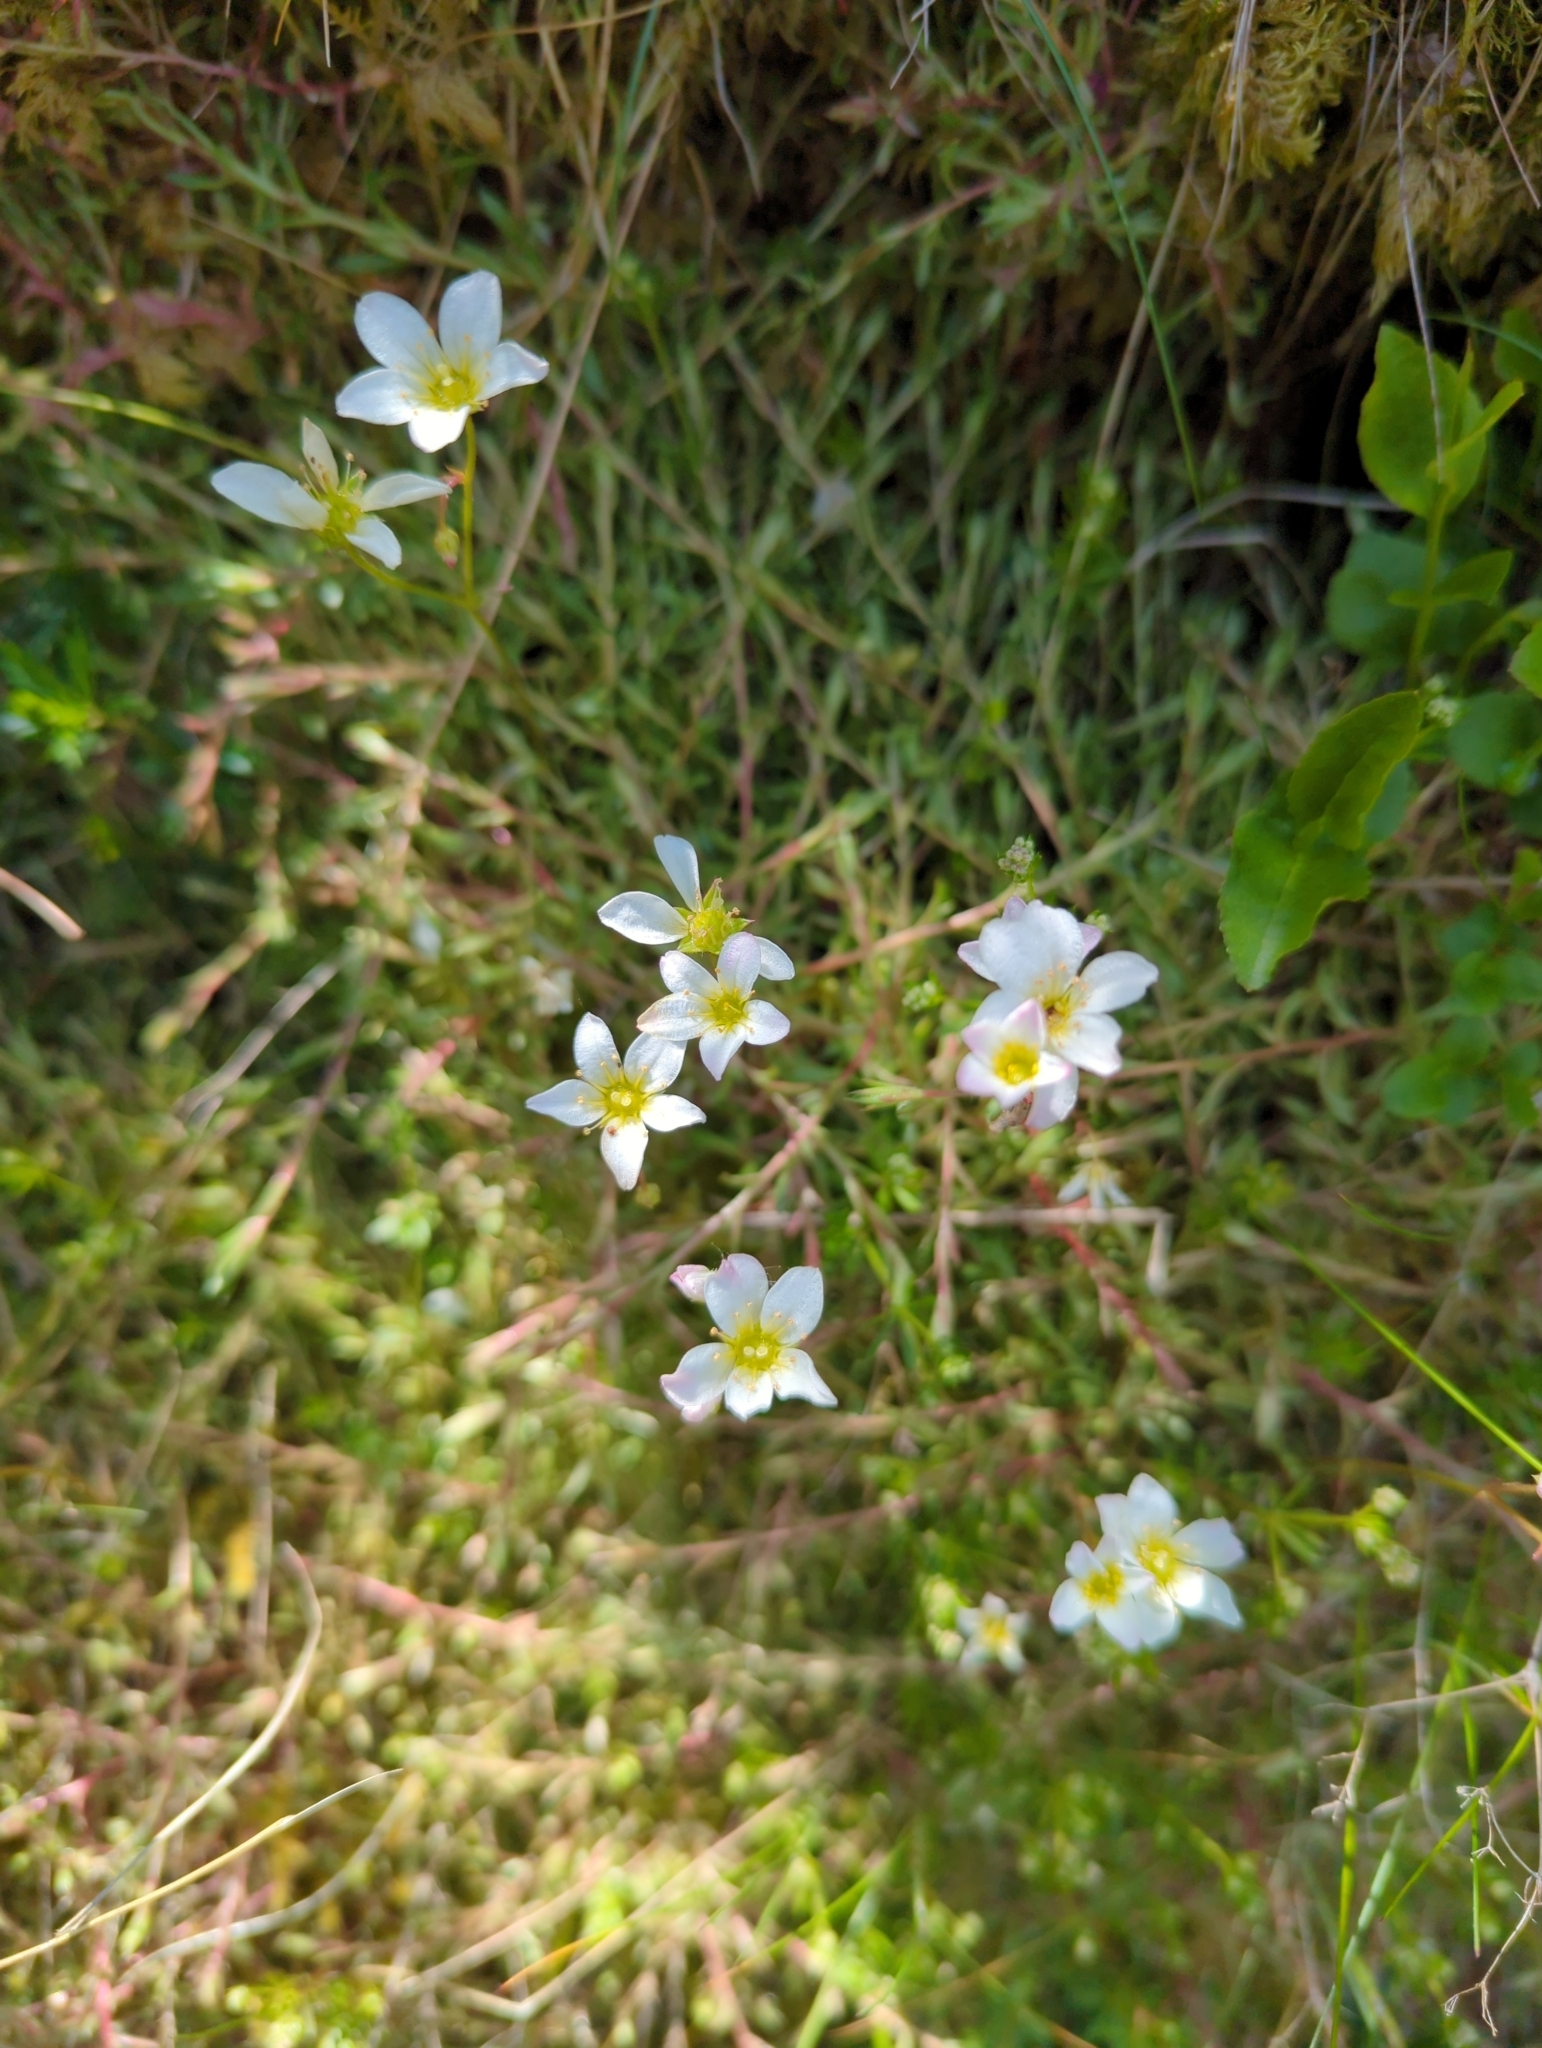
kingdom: Plantae
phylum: Tracheophyta
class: Magnoliopsida
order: Saxifragales
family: Saxifragaceae
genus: Saxifraga
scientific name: Saxifraga hypnoides
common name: Mossy saxifrage
